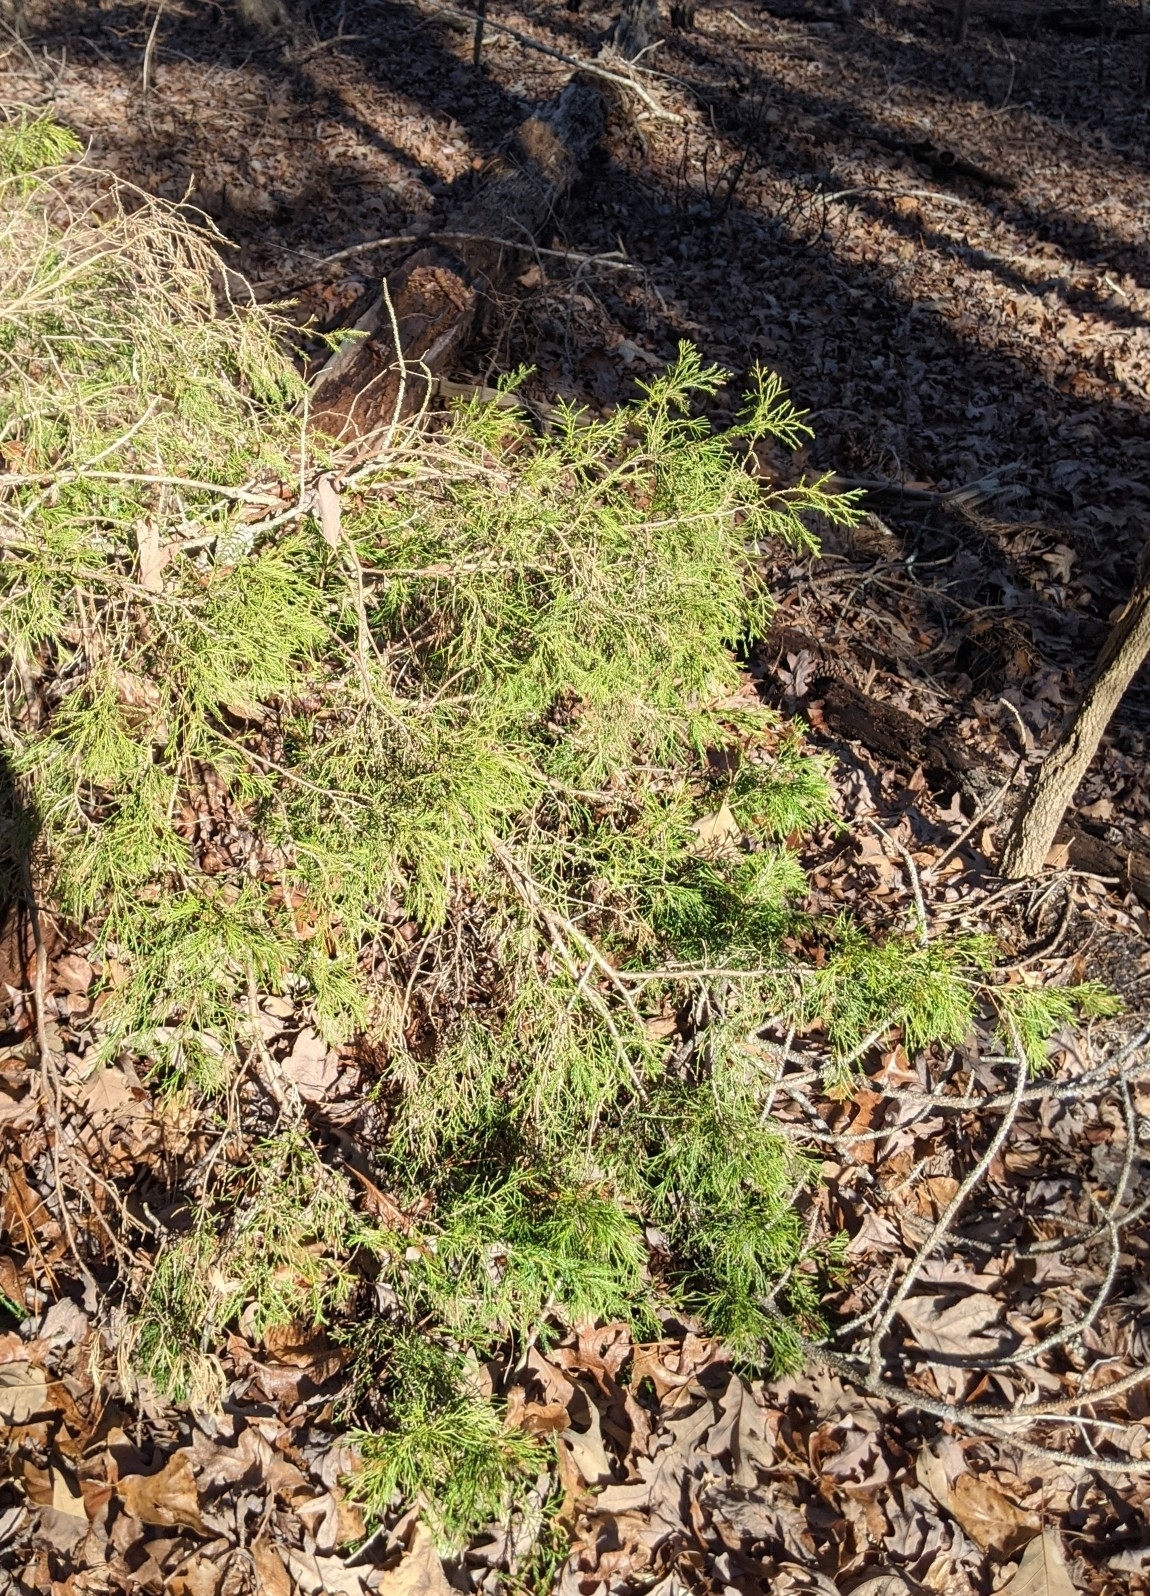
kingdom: Plantae
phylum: Tracheophyta
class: Pinopsida
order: Pinales
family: Cupressaceae
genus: Juniperus
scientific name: Juniperus virginiana
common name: Red juniper
